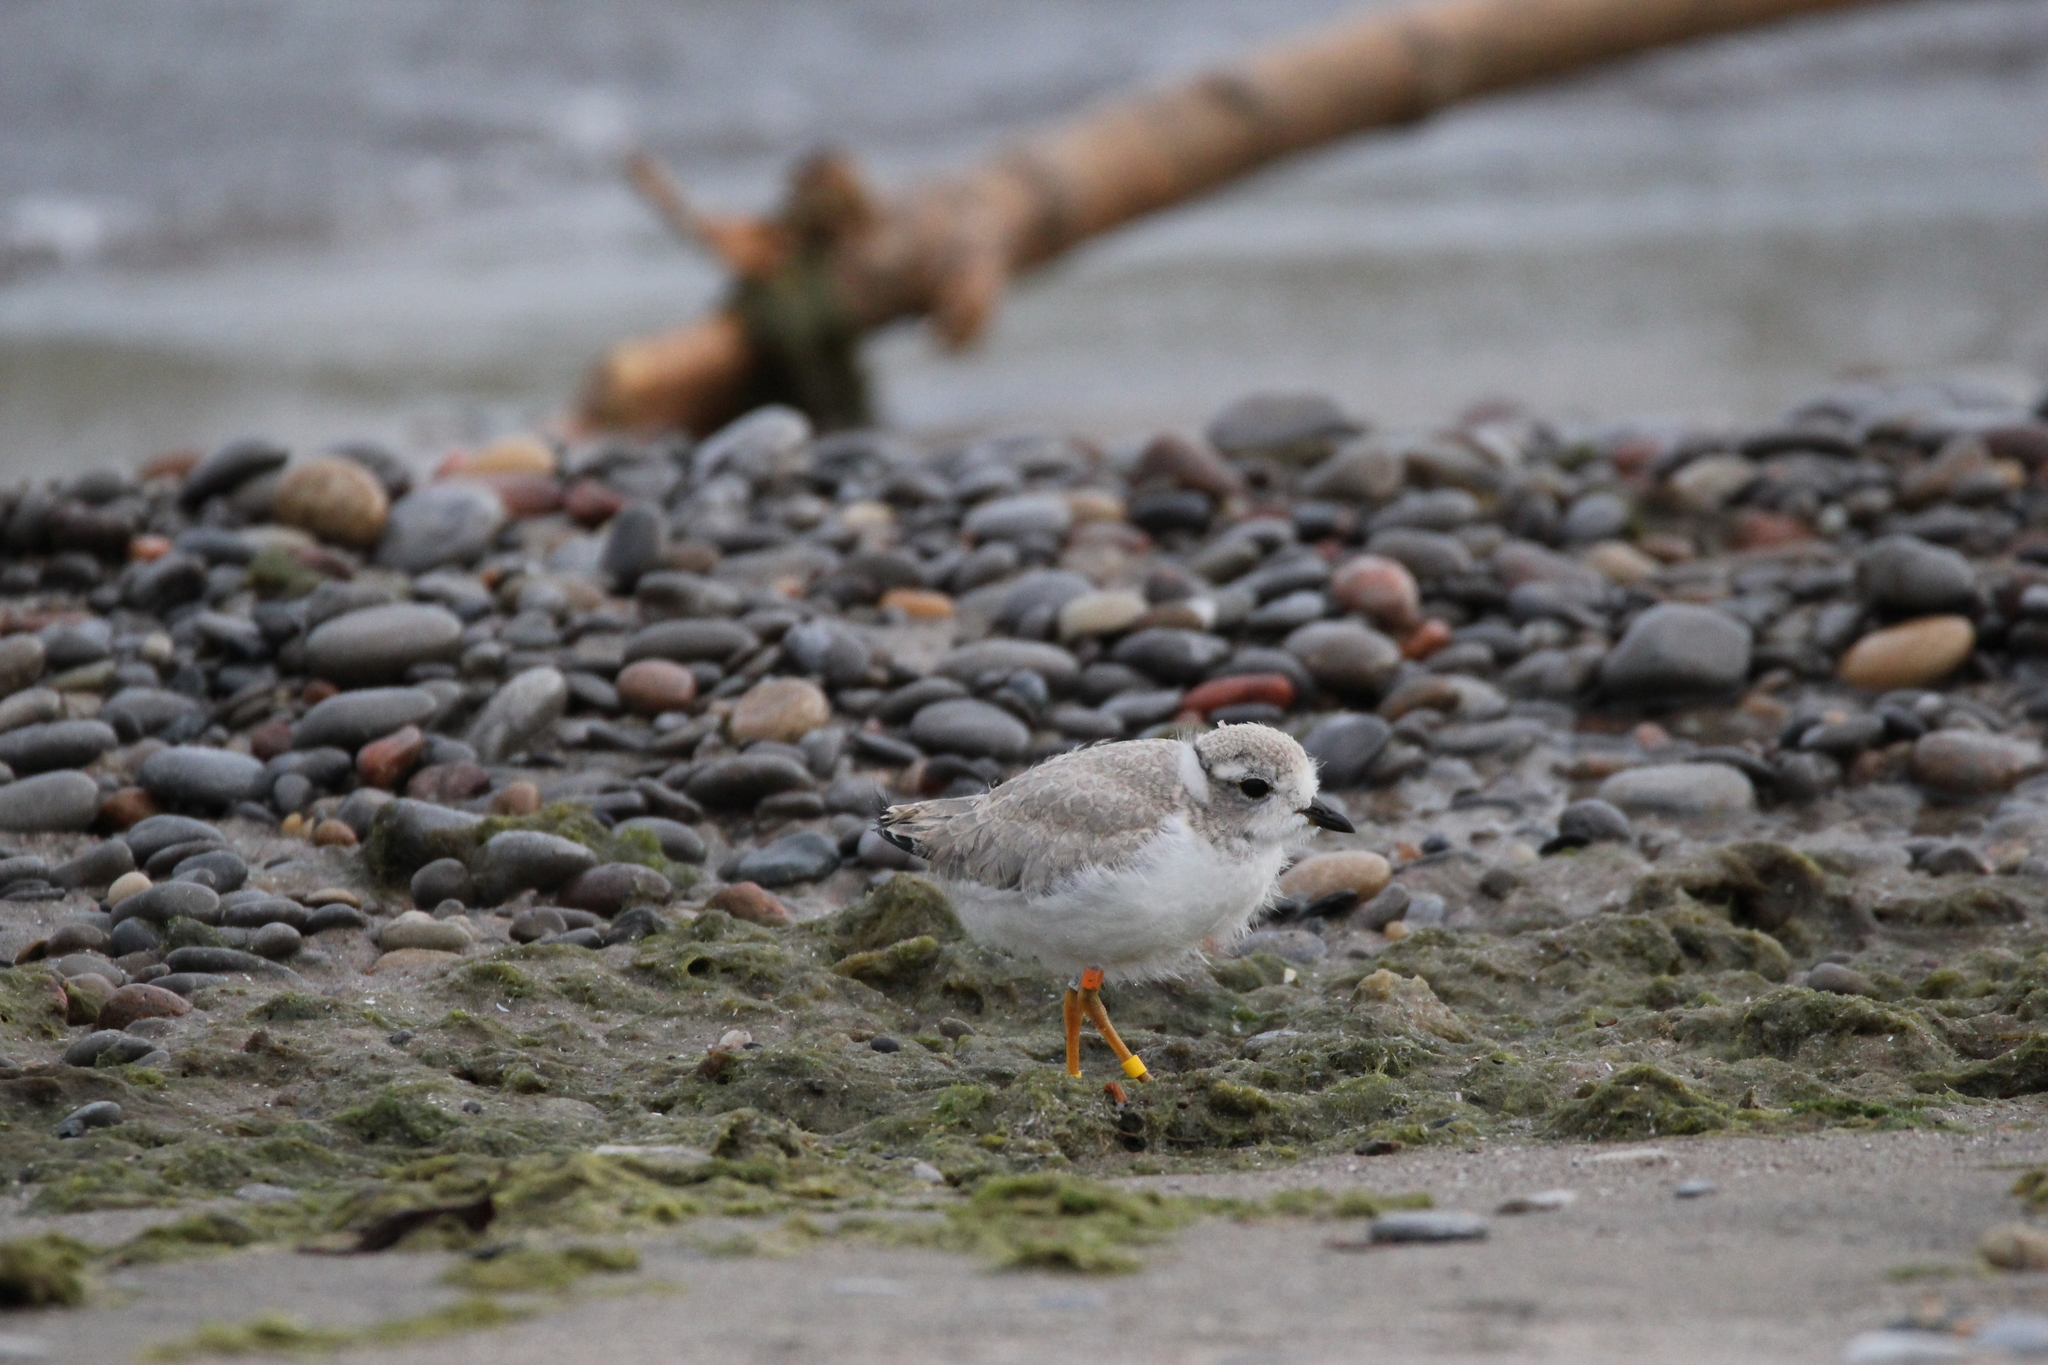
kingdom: Animalia
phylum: Chordata
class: Aves
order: Charadriiformes
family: Charadriidae
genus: Charadrius
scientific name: Charadrius melodus
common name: Piping plover
